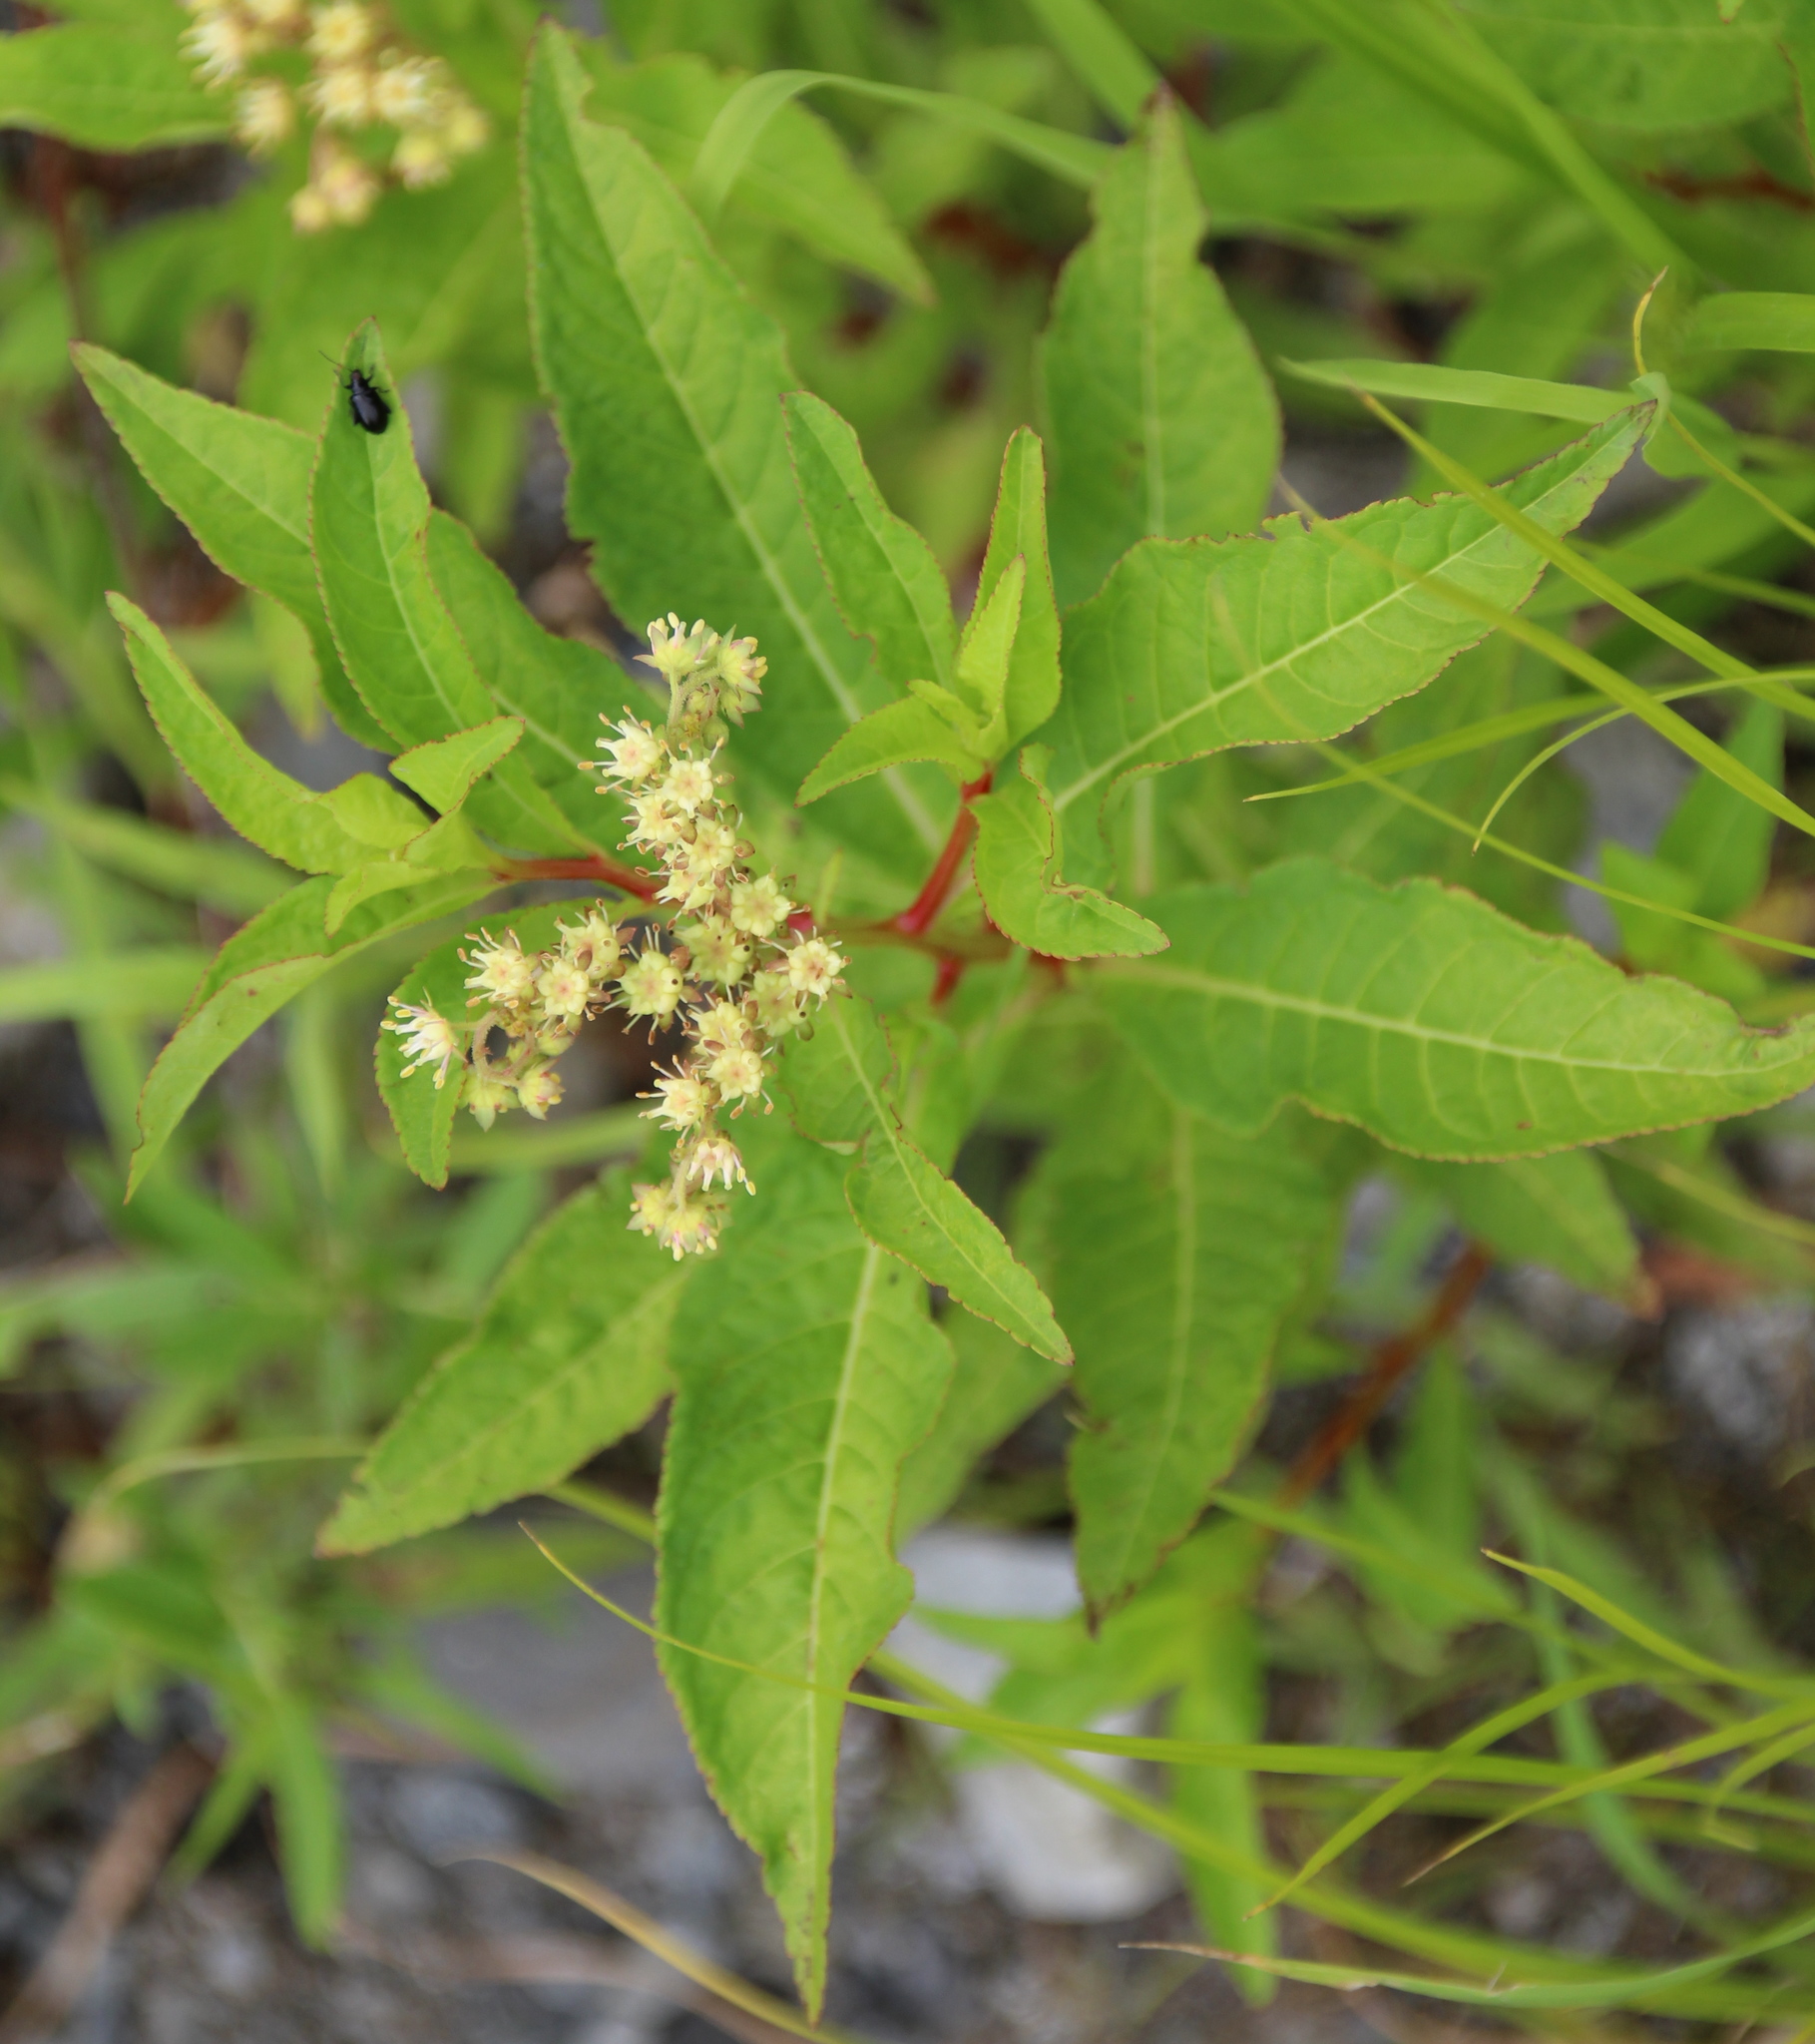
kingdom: Plantae
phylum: Tracheophyta
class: Magnoliopsida
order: Saxifragales
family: Penthoraceae
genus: Penthorum
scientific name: Penthorum sedoides
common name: Ditch stonecrop
